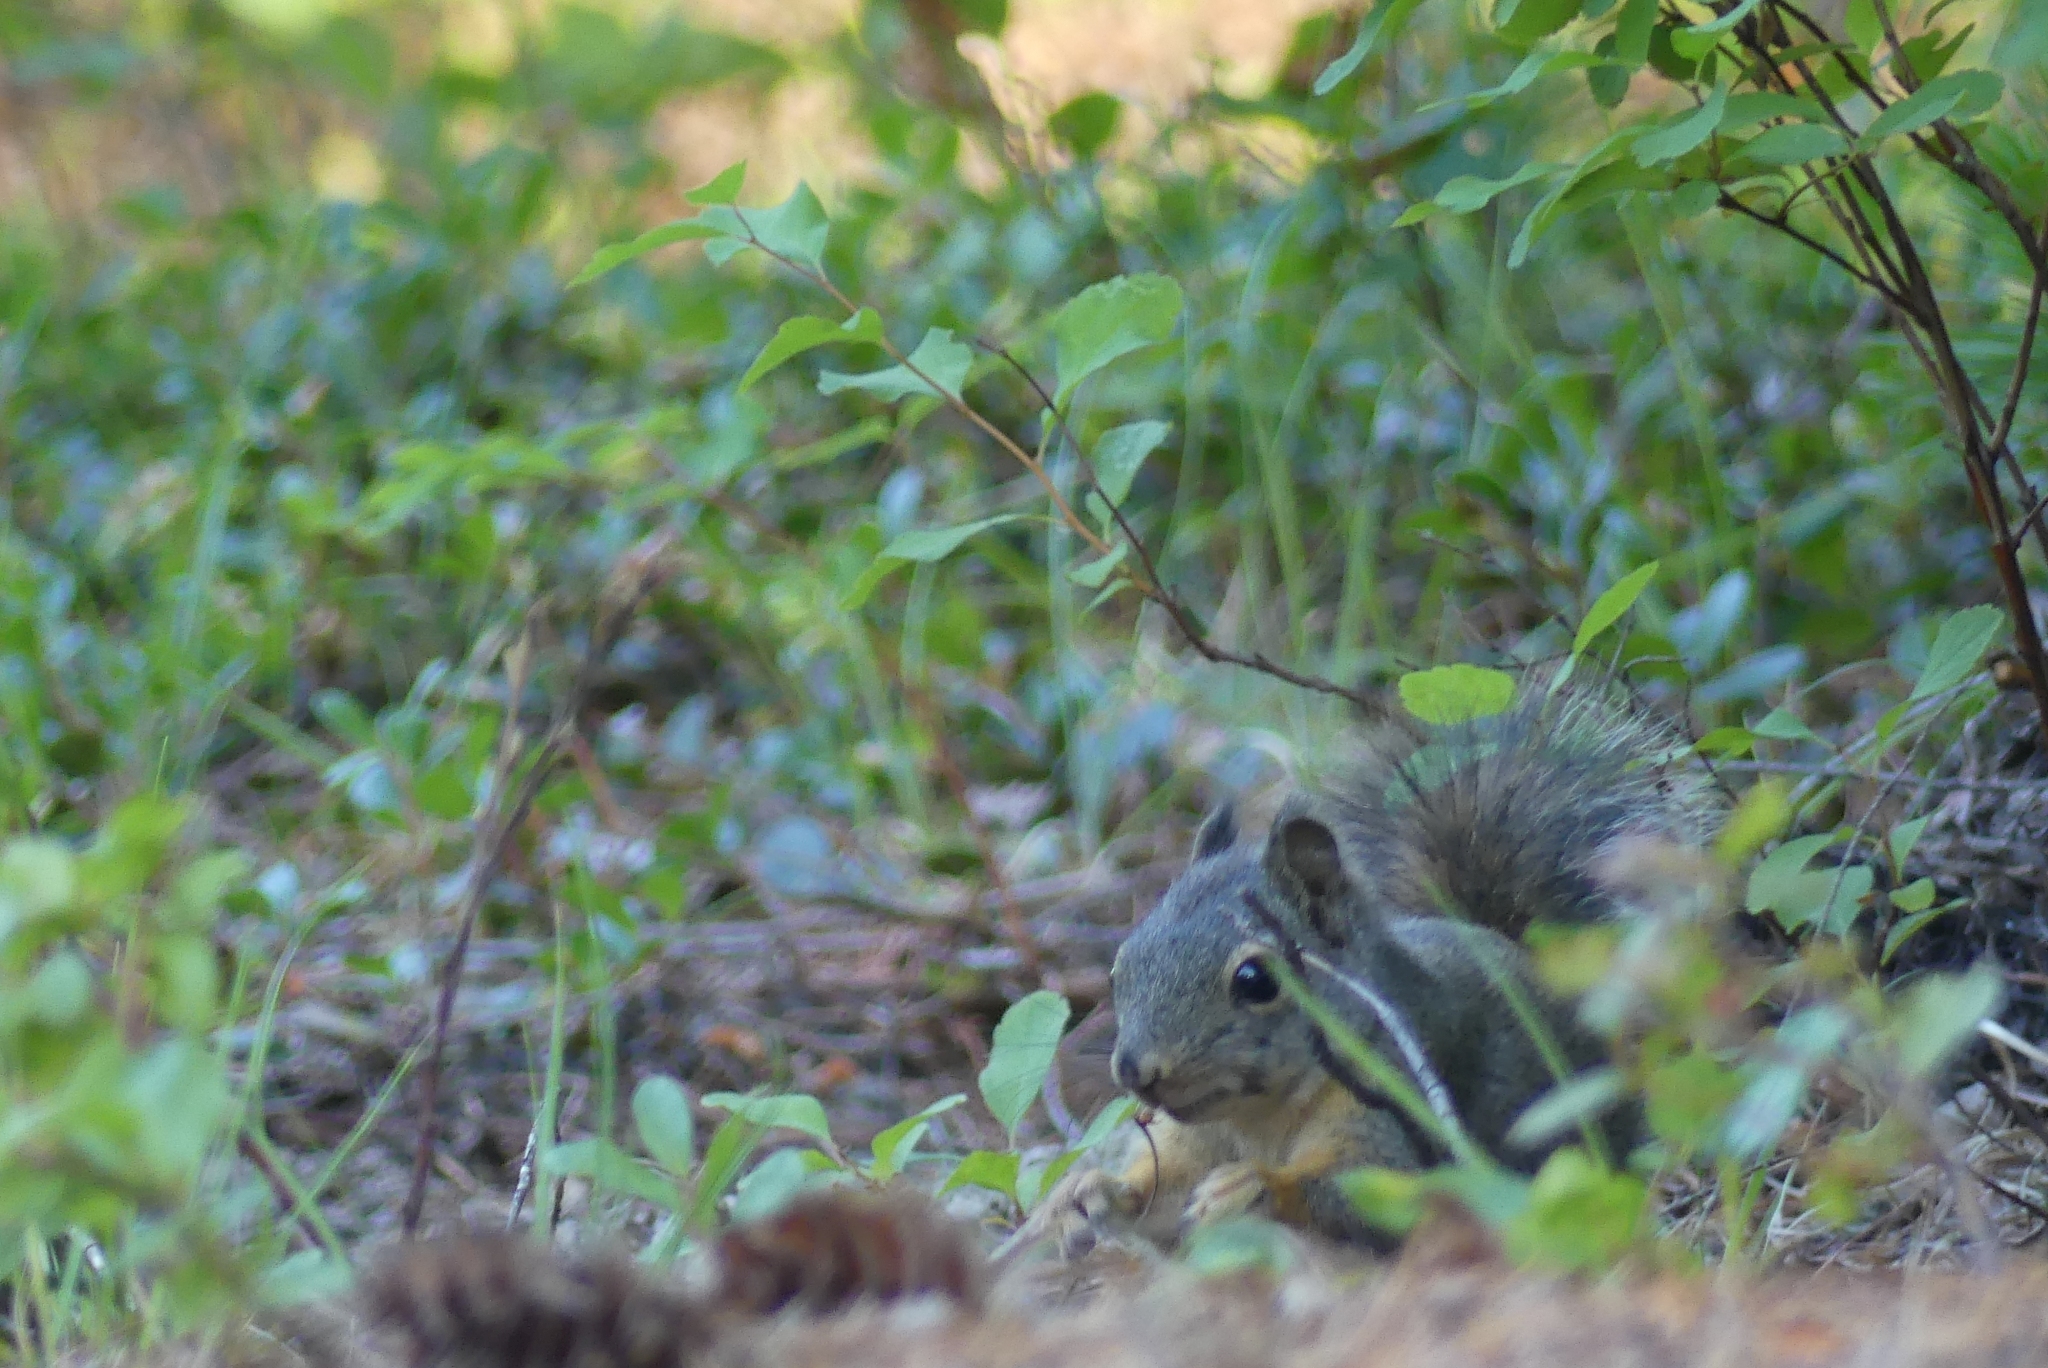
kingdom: Animalia
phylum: Chordata
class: Mammalia
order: Rodentia
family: Sciuridae
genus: Tamiasciurus
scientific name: Tamiasciurus douglasii
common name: Douglas's squirrel
